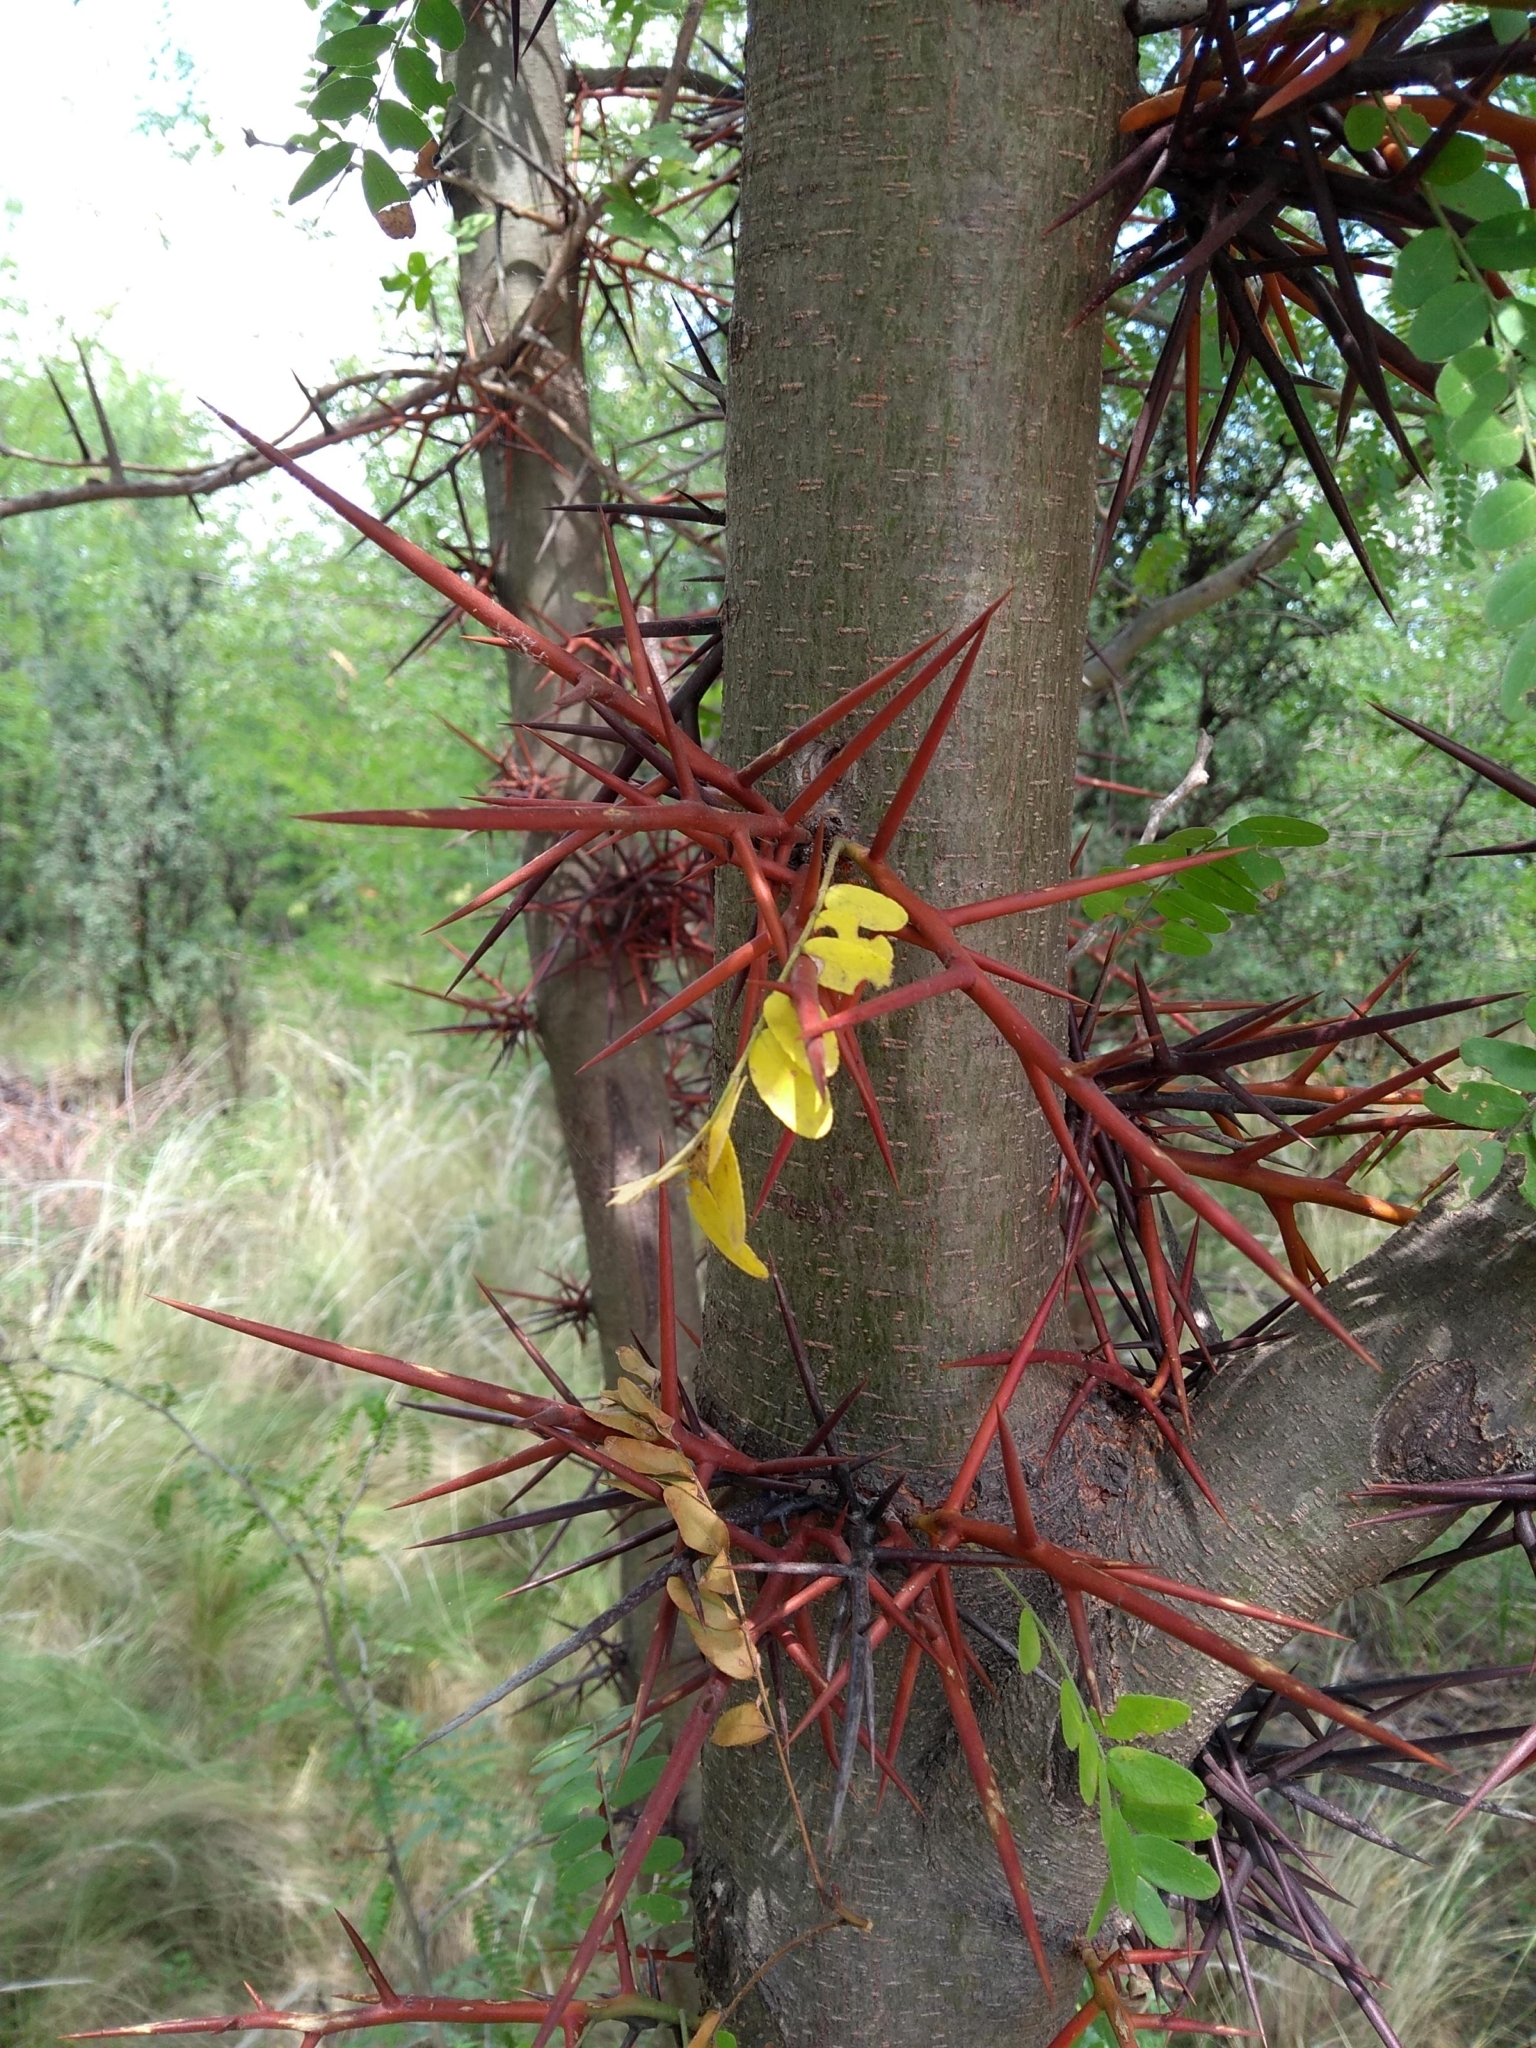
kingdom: Plantae
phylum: Tracheophyta
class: Magnoliopsida
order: Fabales
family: Fabaceae
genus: Gleditsia
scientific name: Gleditsia triacanthos
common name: Common honeylocust
